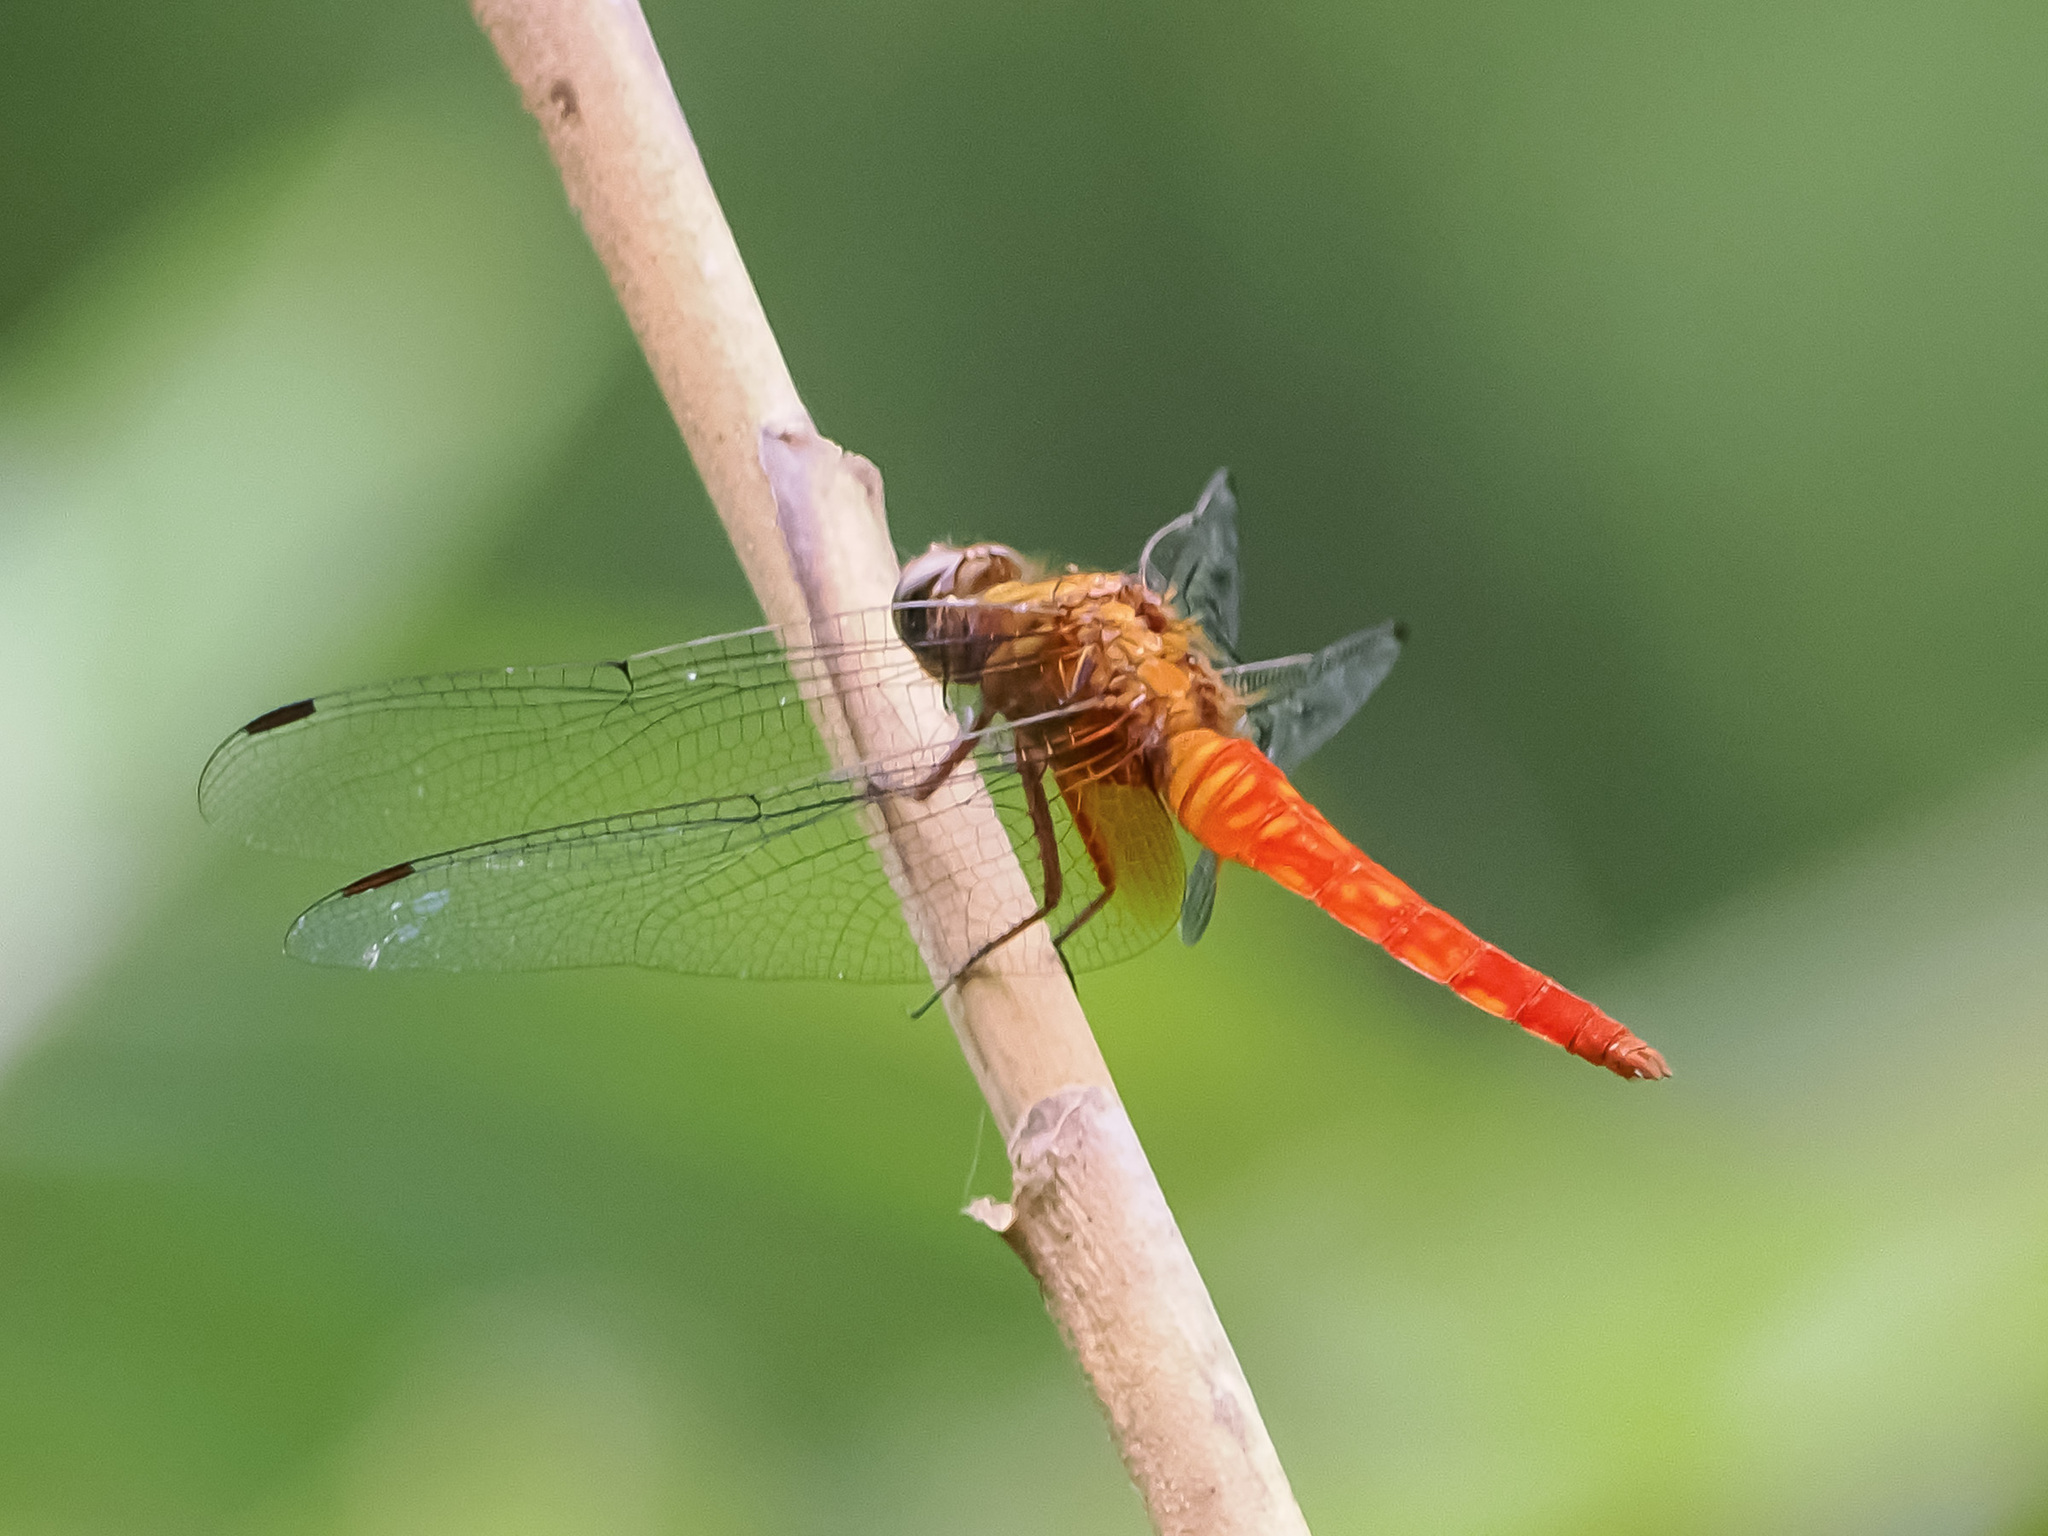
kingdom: Animalia
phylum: Arthropoda
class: Insecta
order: Odonata
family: Libellulidae
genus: Orthetrum
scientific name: Orthetrum testaceum
